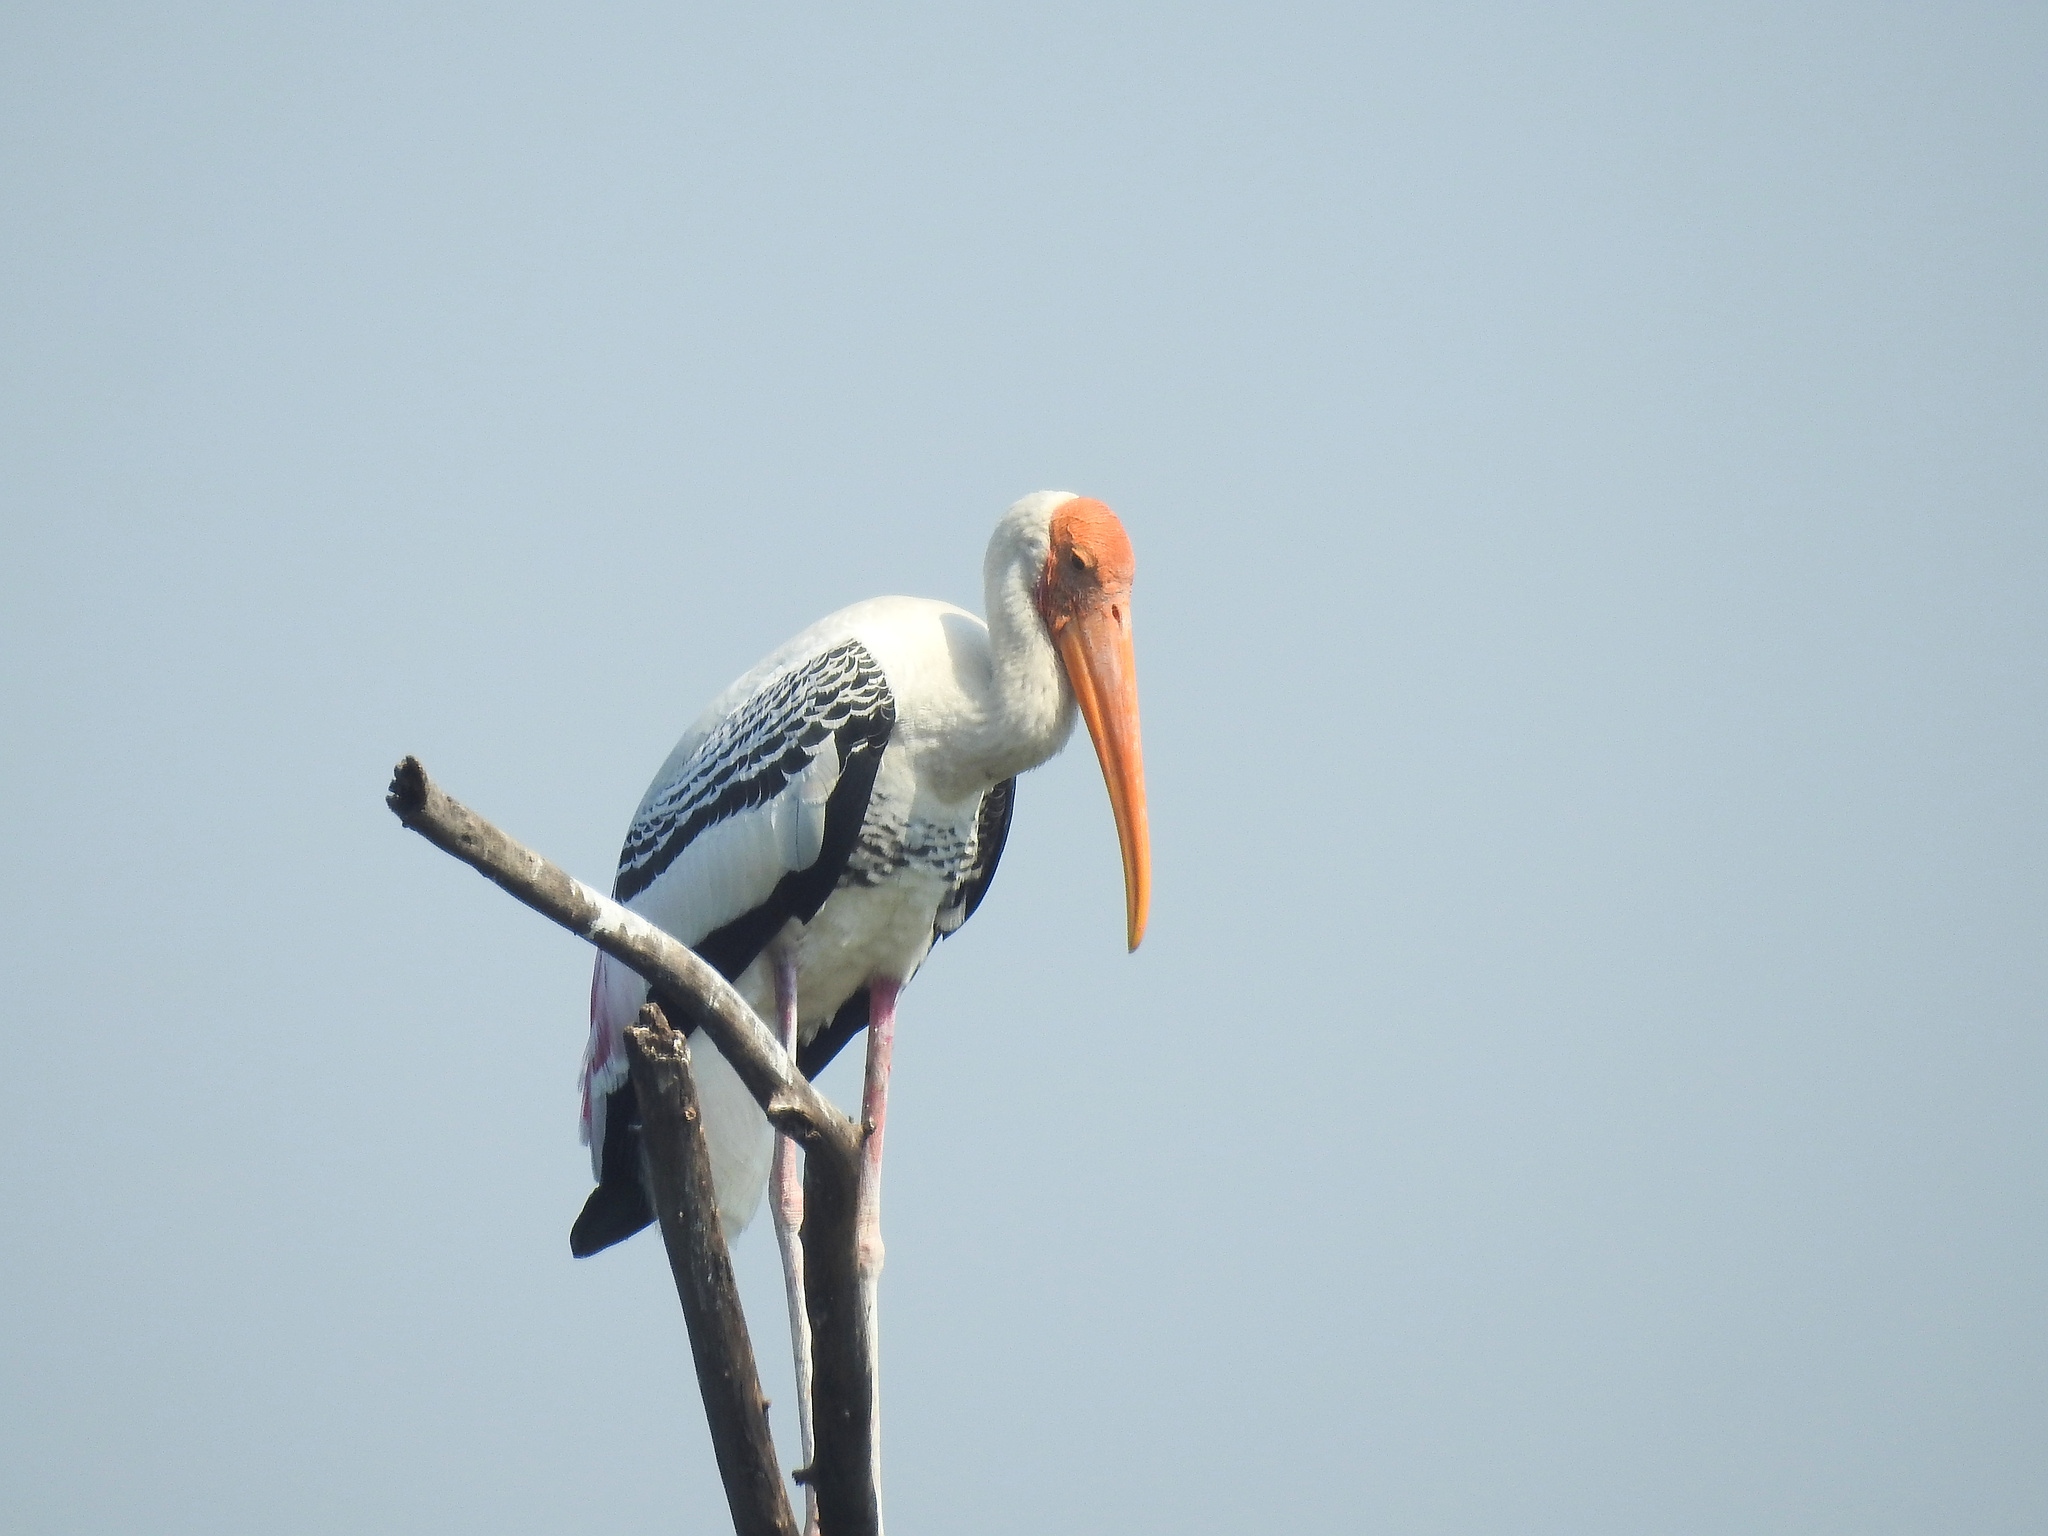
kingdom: Animalia
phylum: Chordata
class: Aves
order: Ciconiiformes
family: Ciconiidae
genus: Mycteria
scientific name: Mycteria leucocephala
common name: Painted stork
